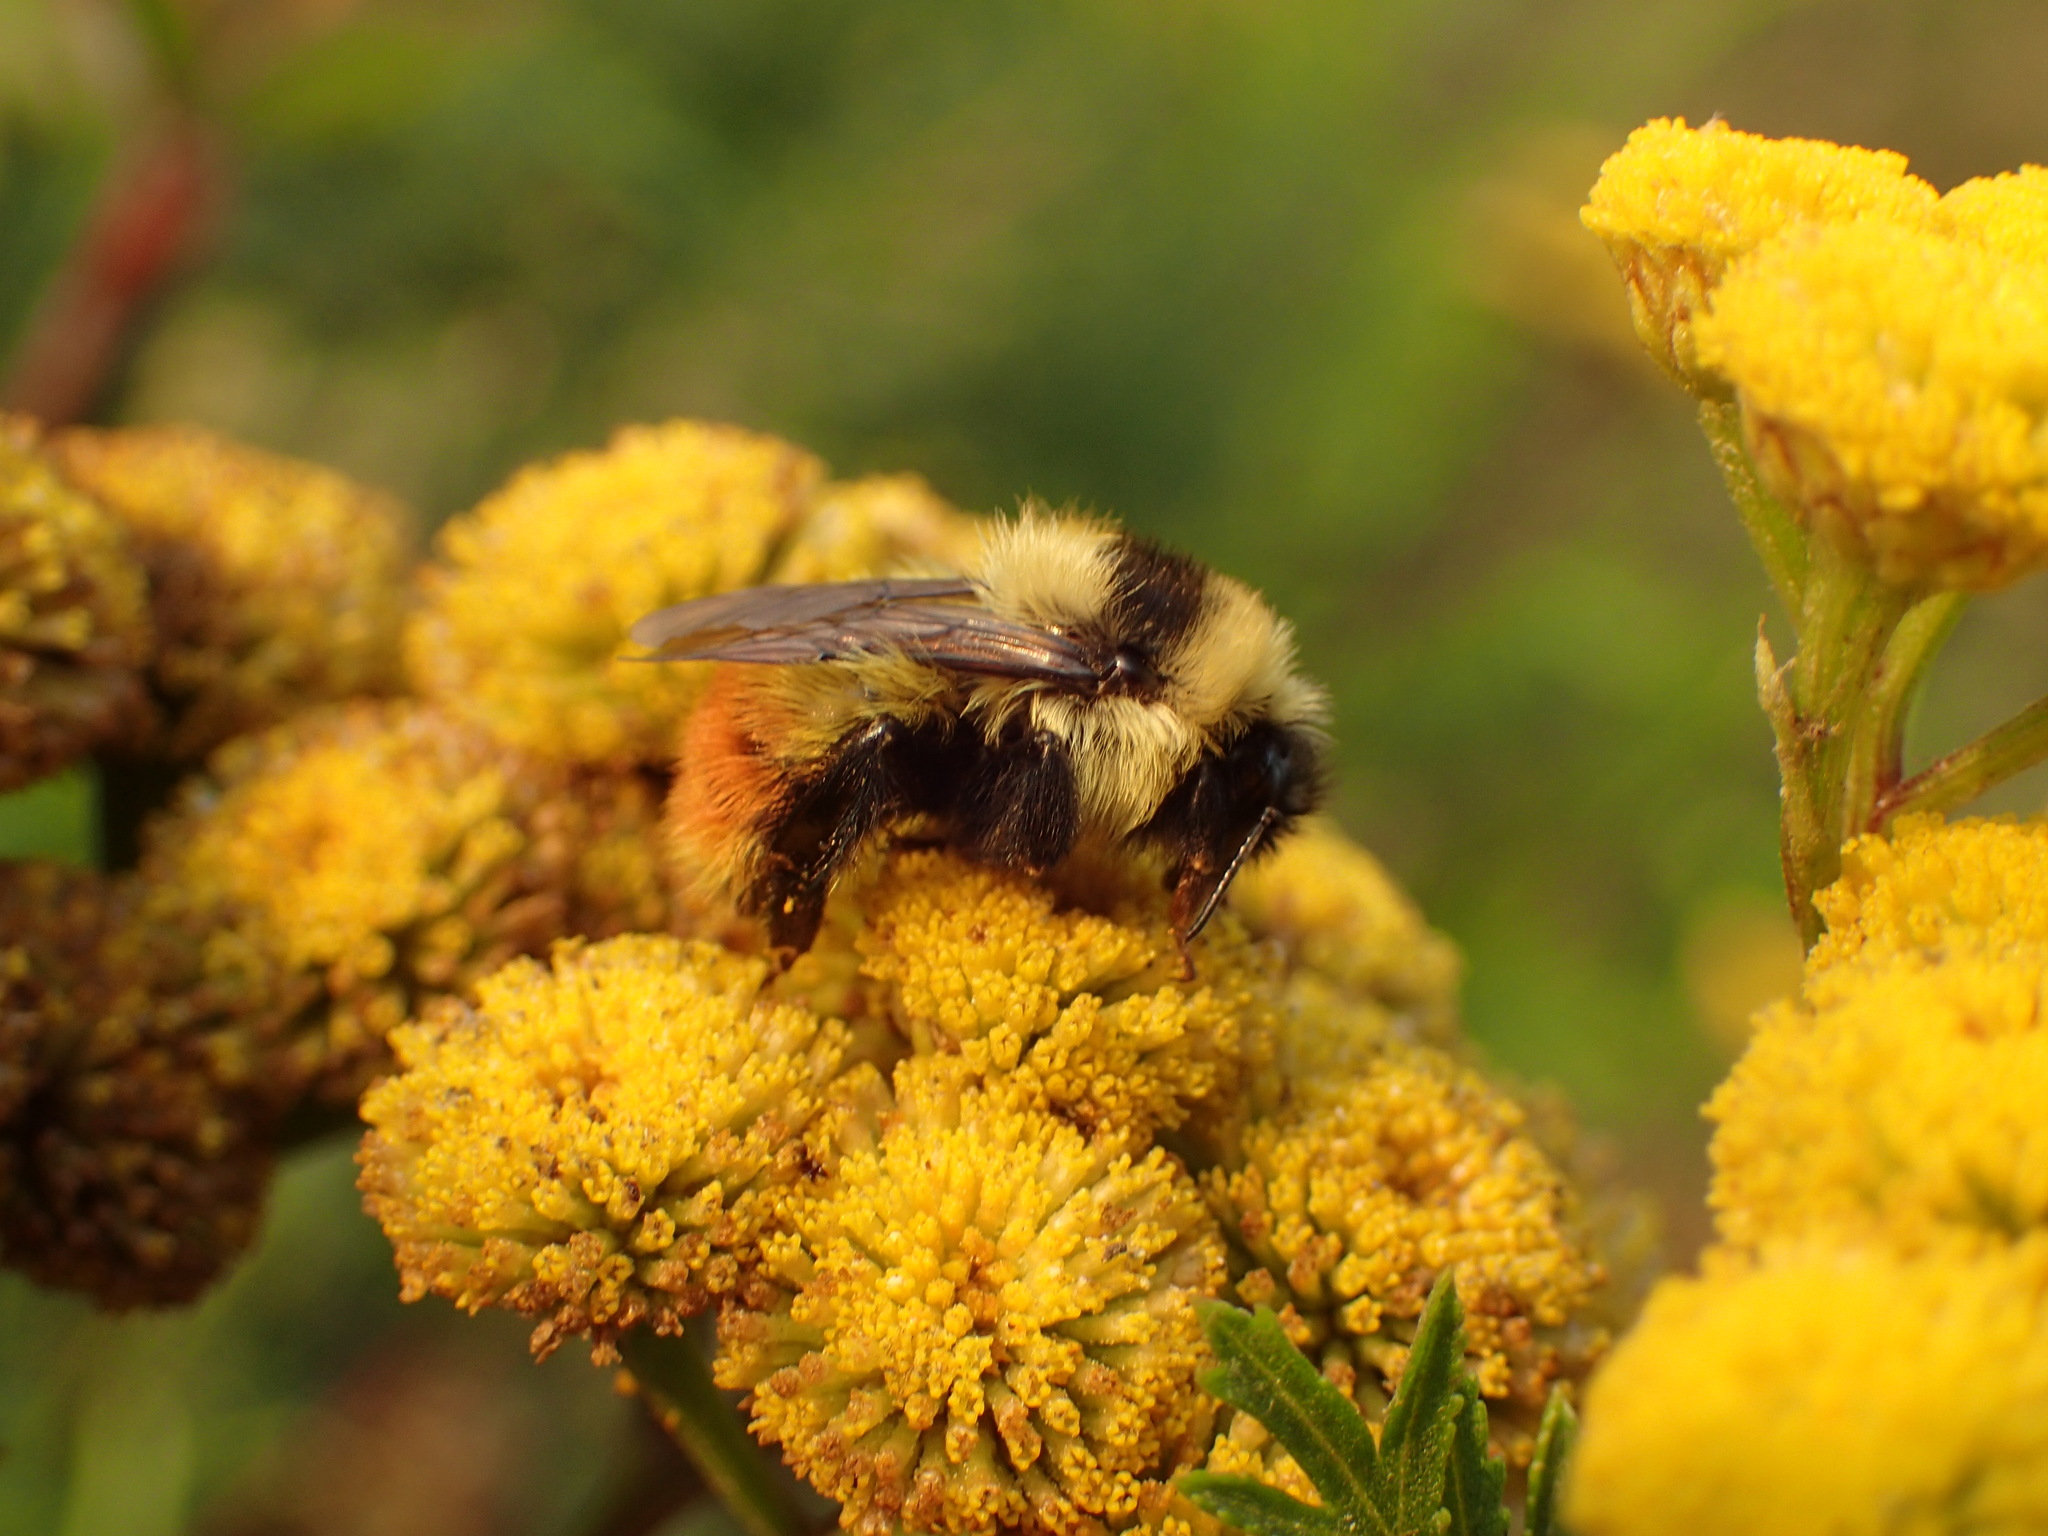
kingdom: Animalia
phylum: Arthropoda
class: Insecta
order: Hymenoptera
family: Apidae
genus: Bombus
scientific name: Bombus rufocinctus
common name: Red-belted bumble bee
